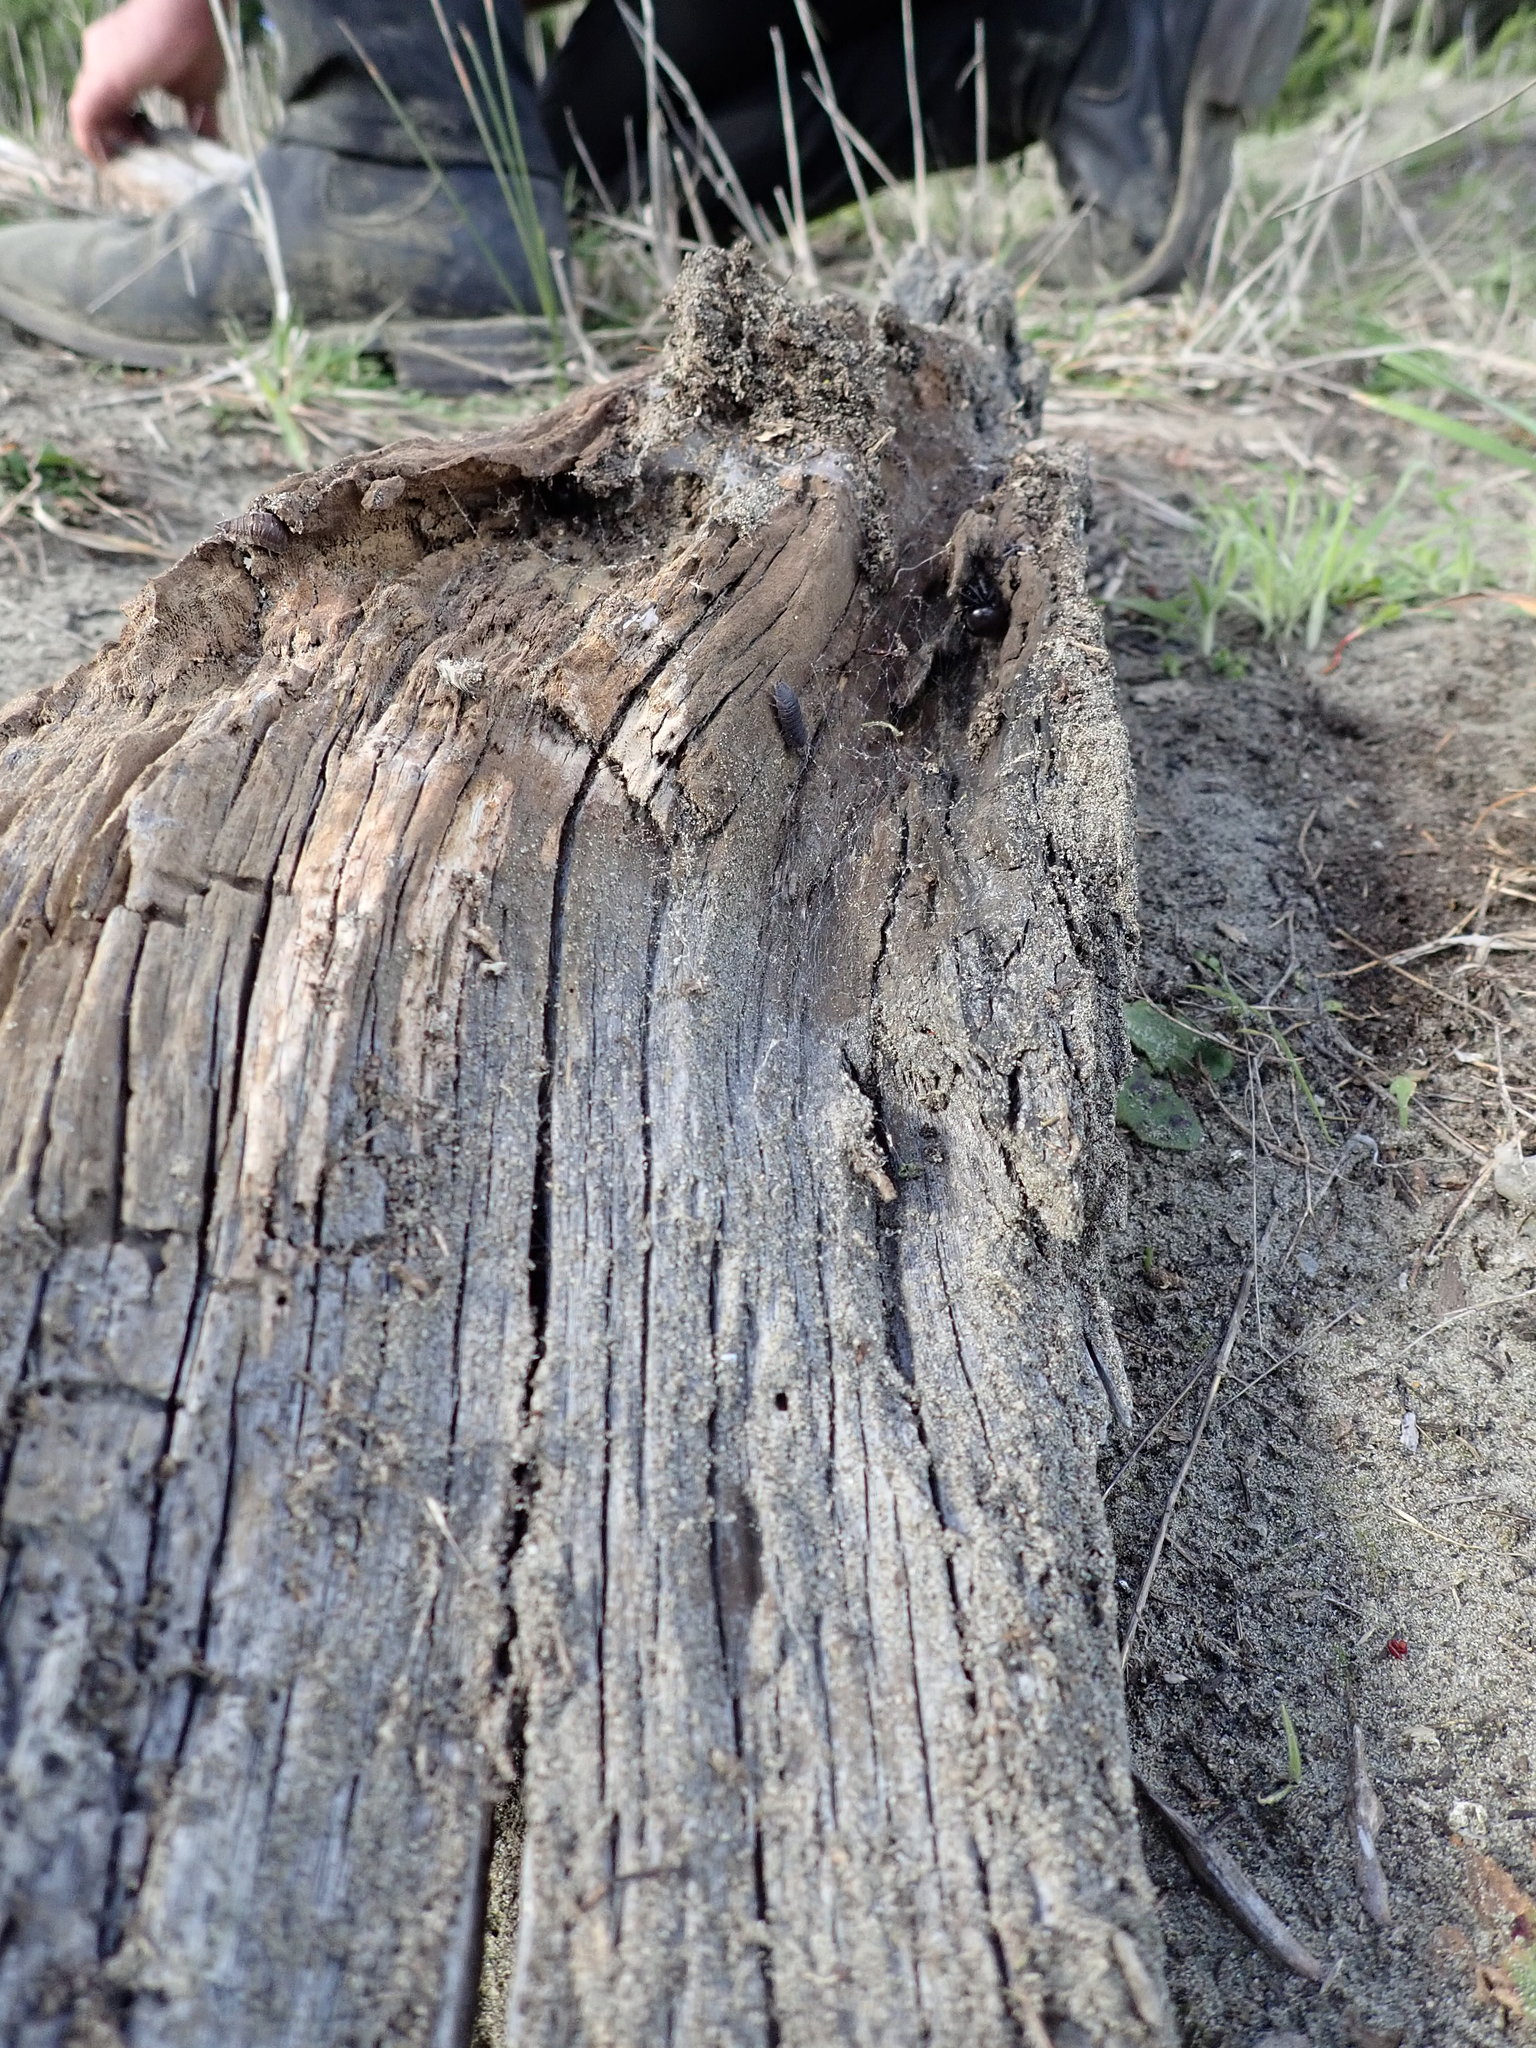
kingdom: Animalia
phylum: Arthropoda
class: Arachnida
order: Araneae
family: Theridiidae
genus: Steatoda
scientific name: Steatoda capensis
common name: Cobweb weaver
